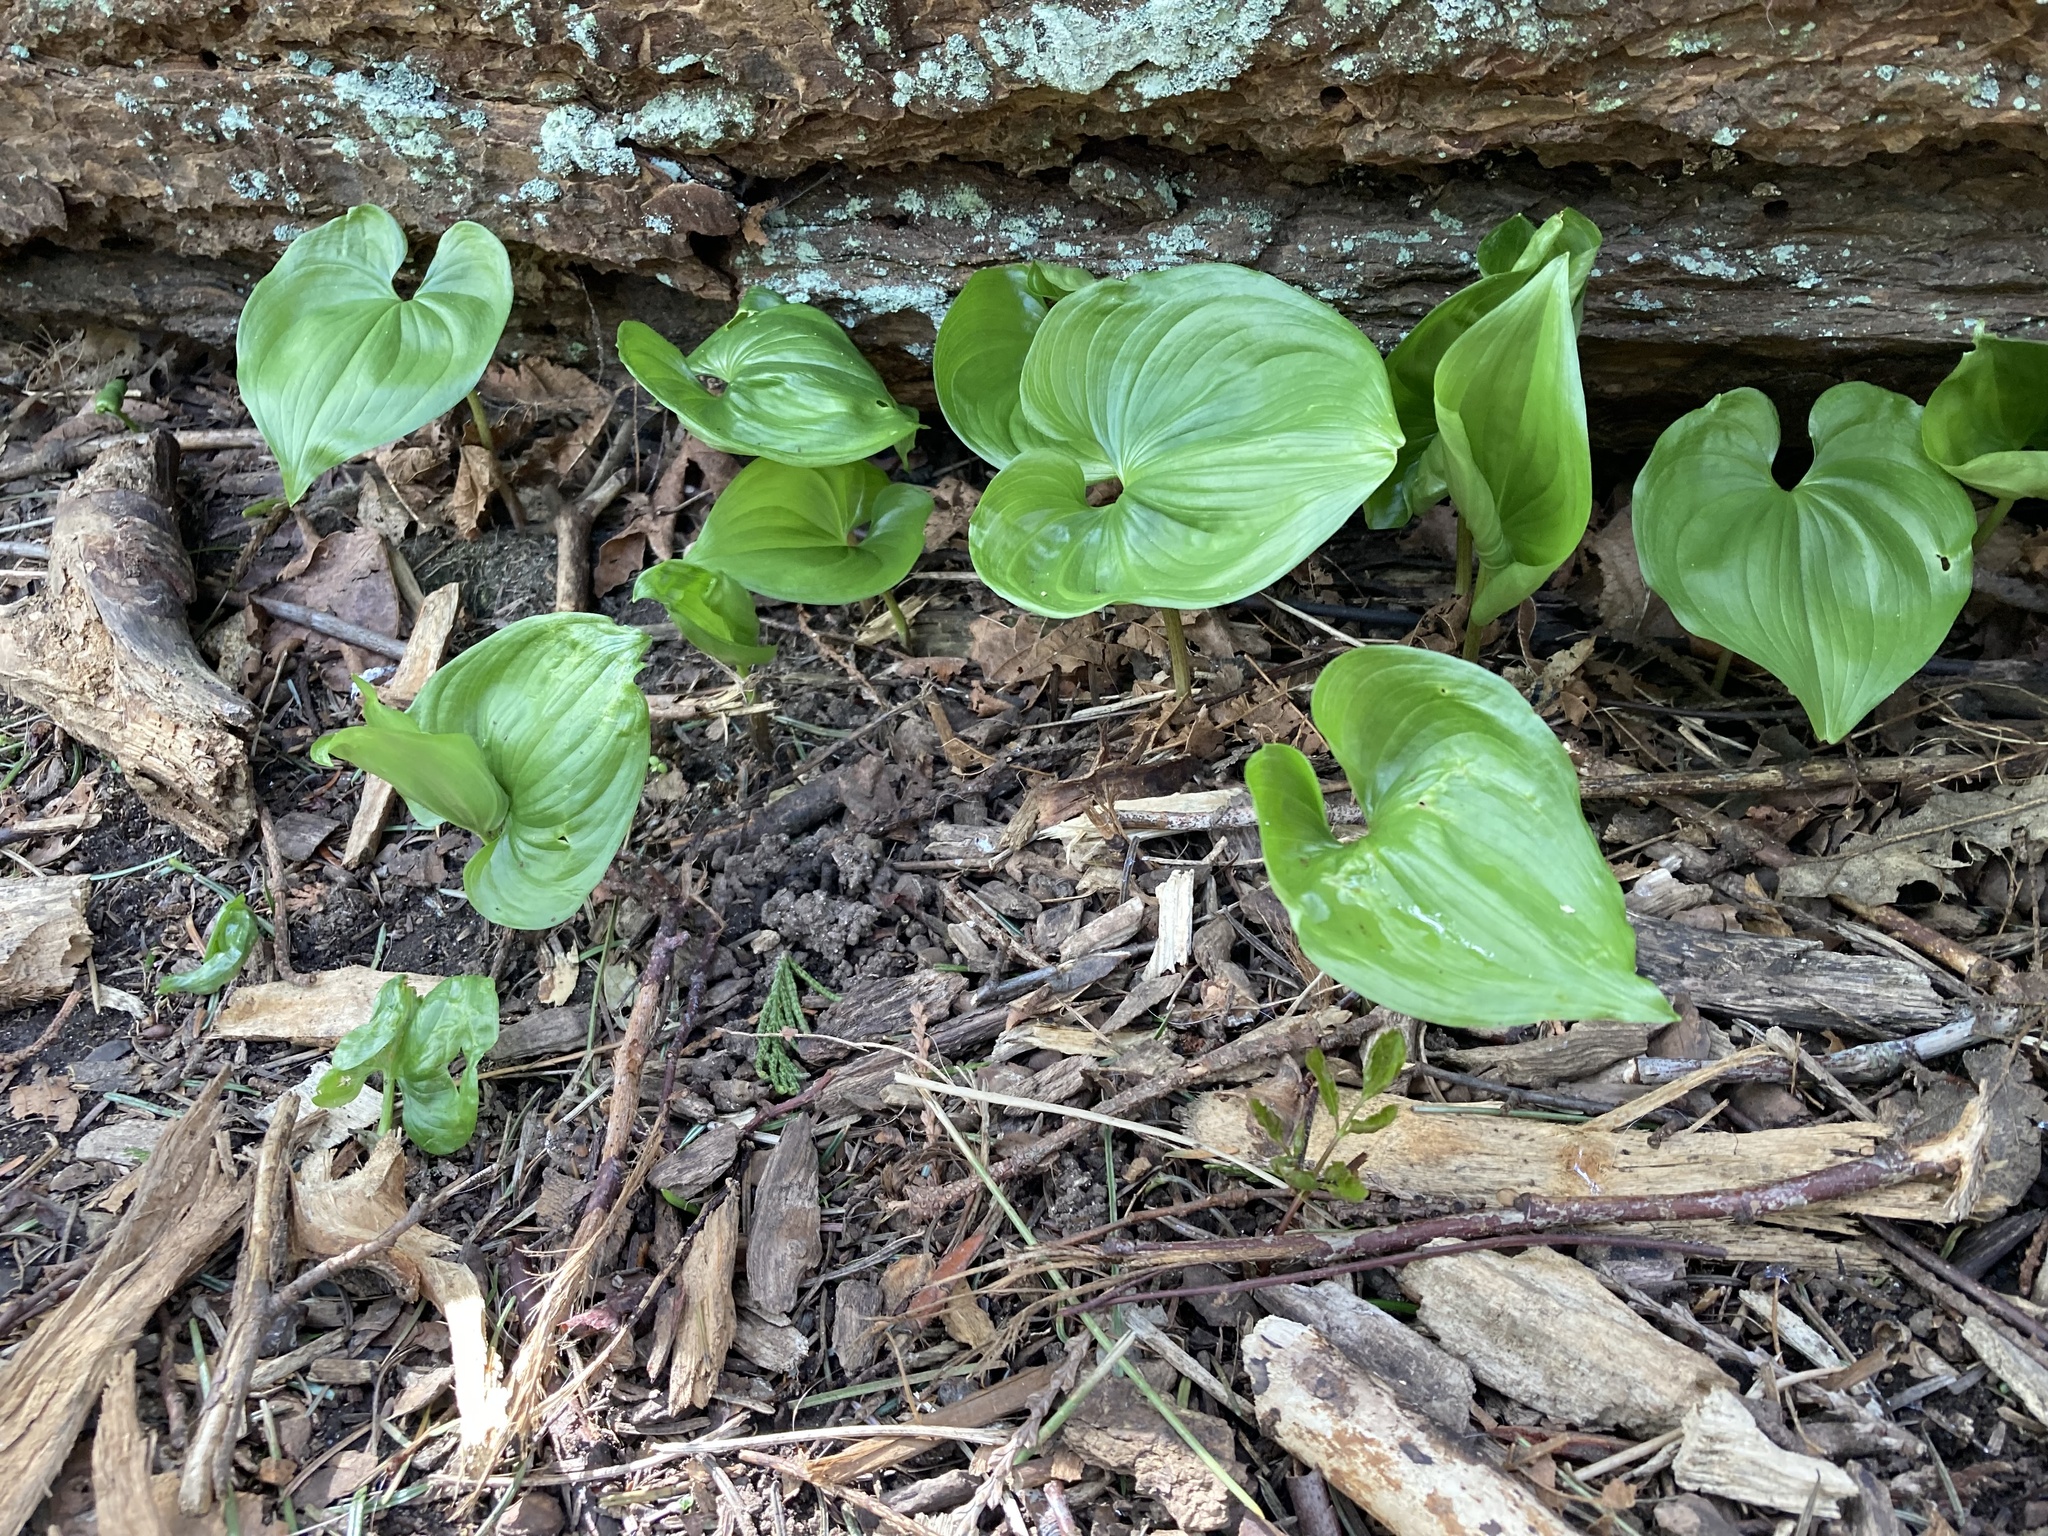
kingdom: Plantae
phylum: Tracheophyta
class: Liliopsida
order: Asparagales
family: Asparagaceae
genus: Maianthemum
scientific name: Maianthemum dilatatum
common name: False lily-of-the-valley
